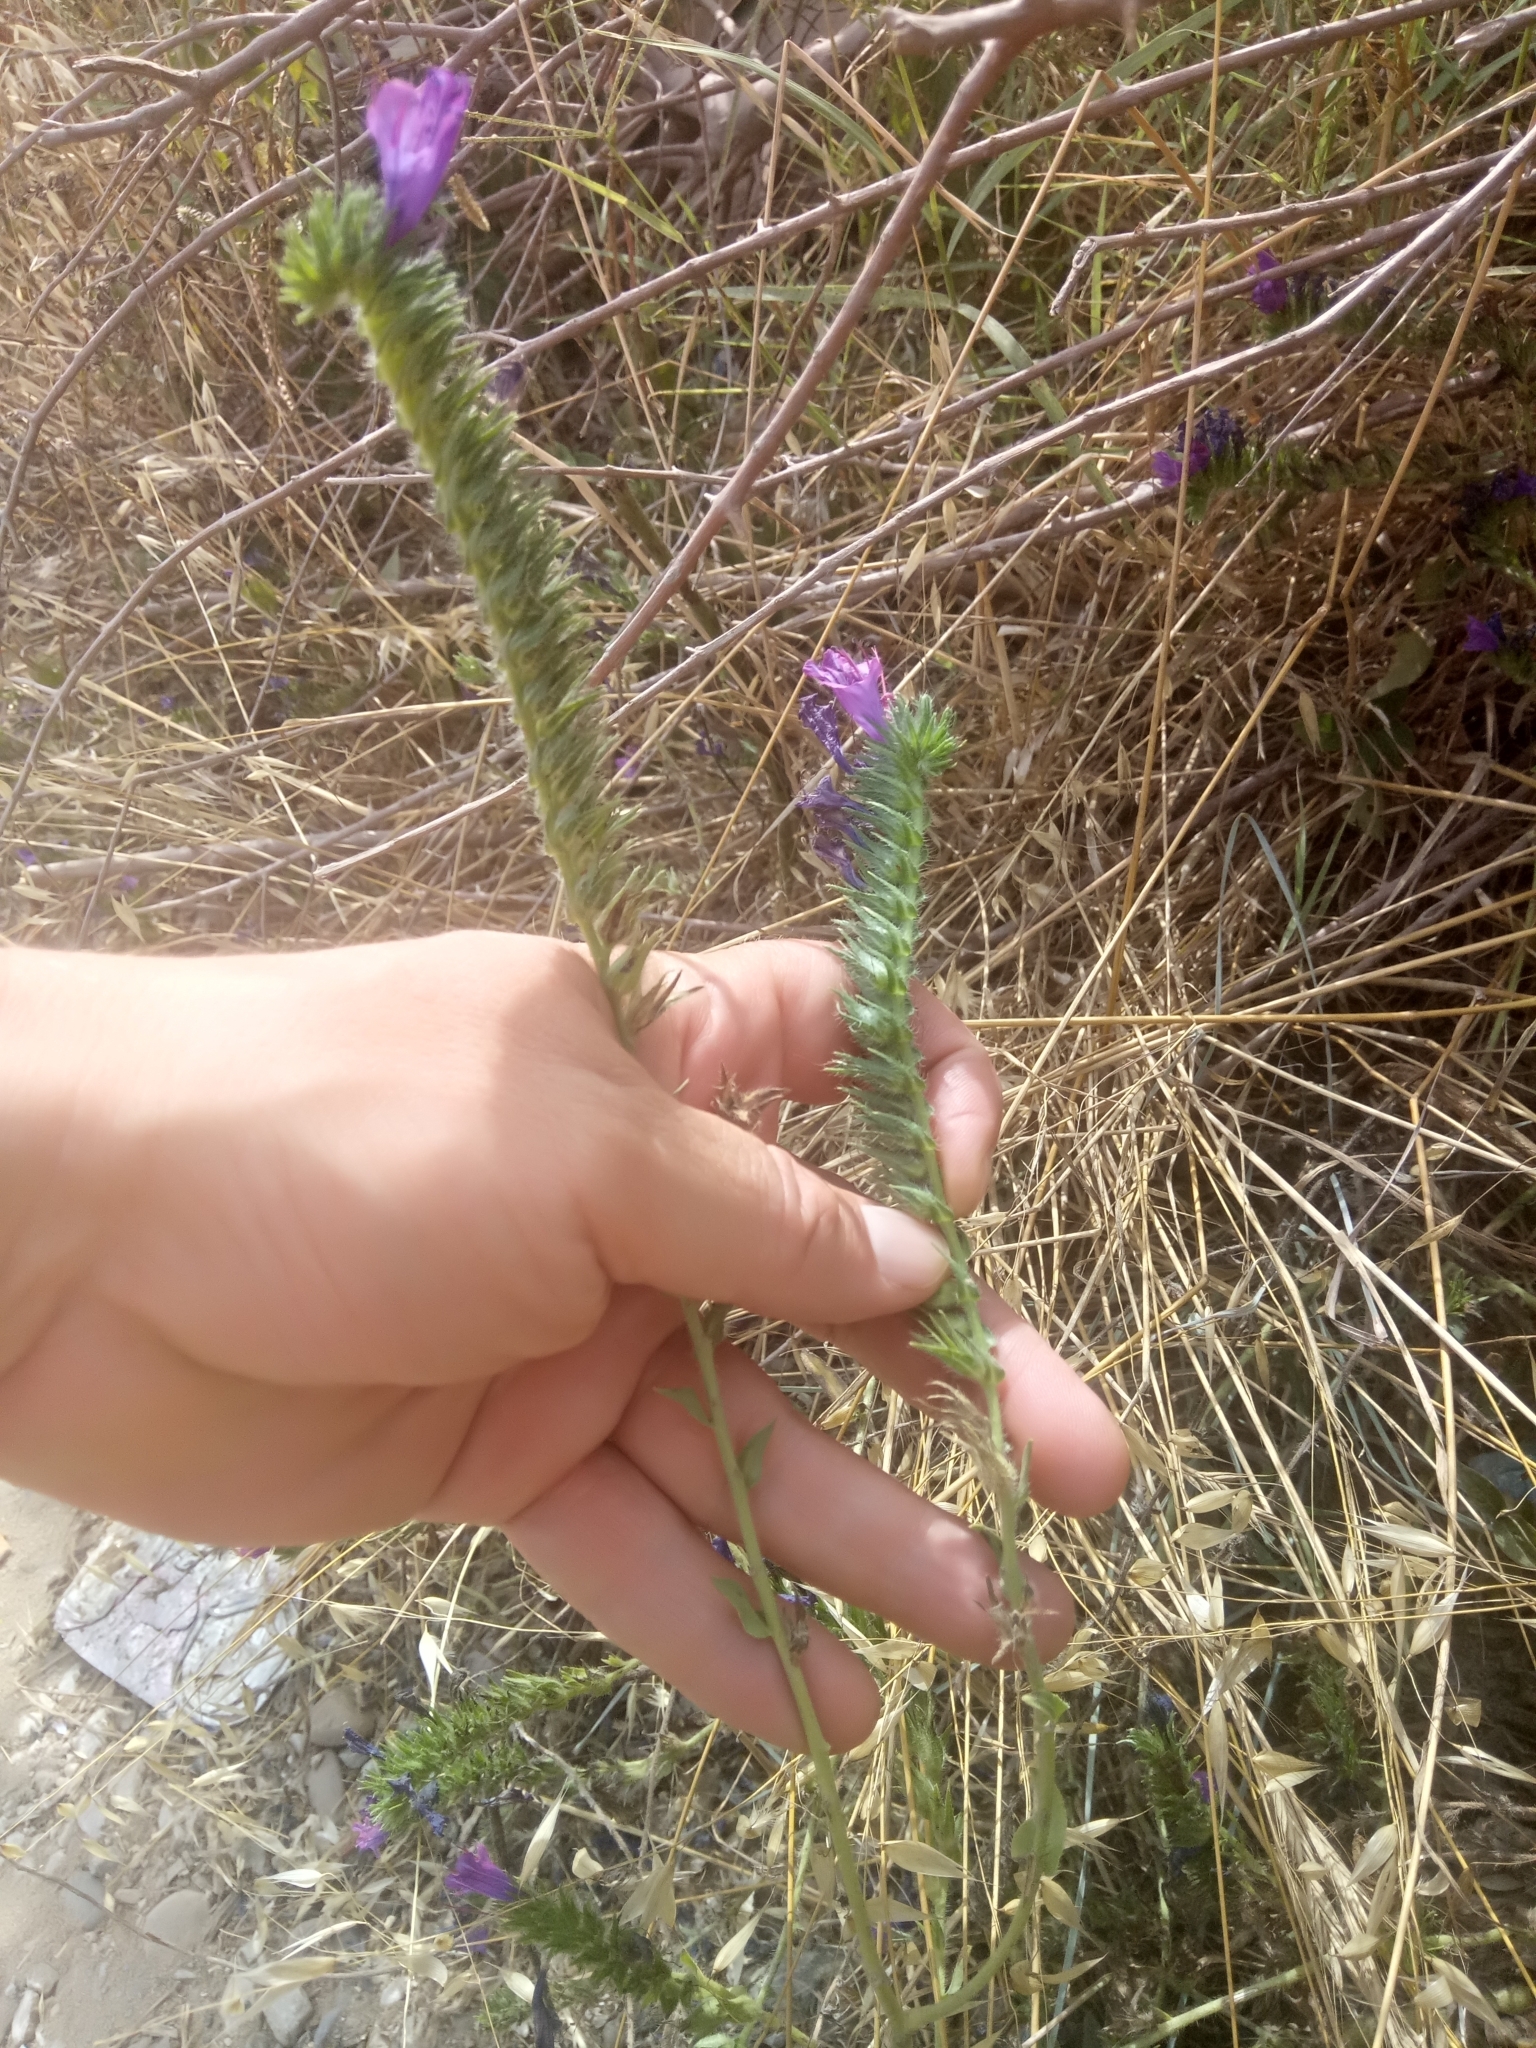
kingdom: Plantae
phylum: Tracheophyta
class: Magnoliopsida
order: Boraginales
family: Boraginaceae
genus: Echium
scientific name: Echium plantagineum
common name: Purple viper's-bugloss
